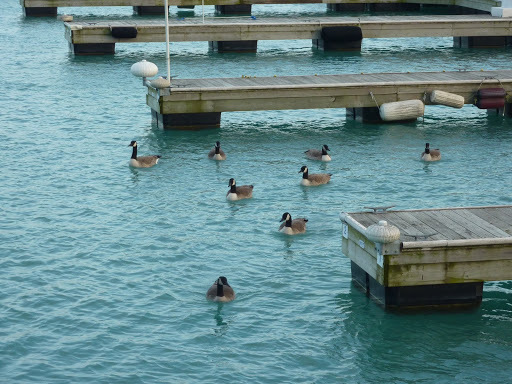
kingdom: Animalia
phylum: Chordata
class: Aves
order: Anseriformes
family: Anatidae
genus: Branta
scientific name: Branta canadensis
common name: Canada goose
